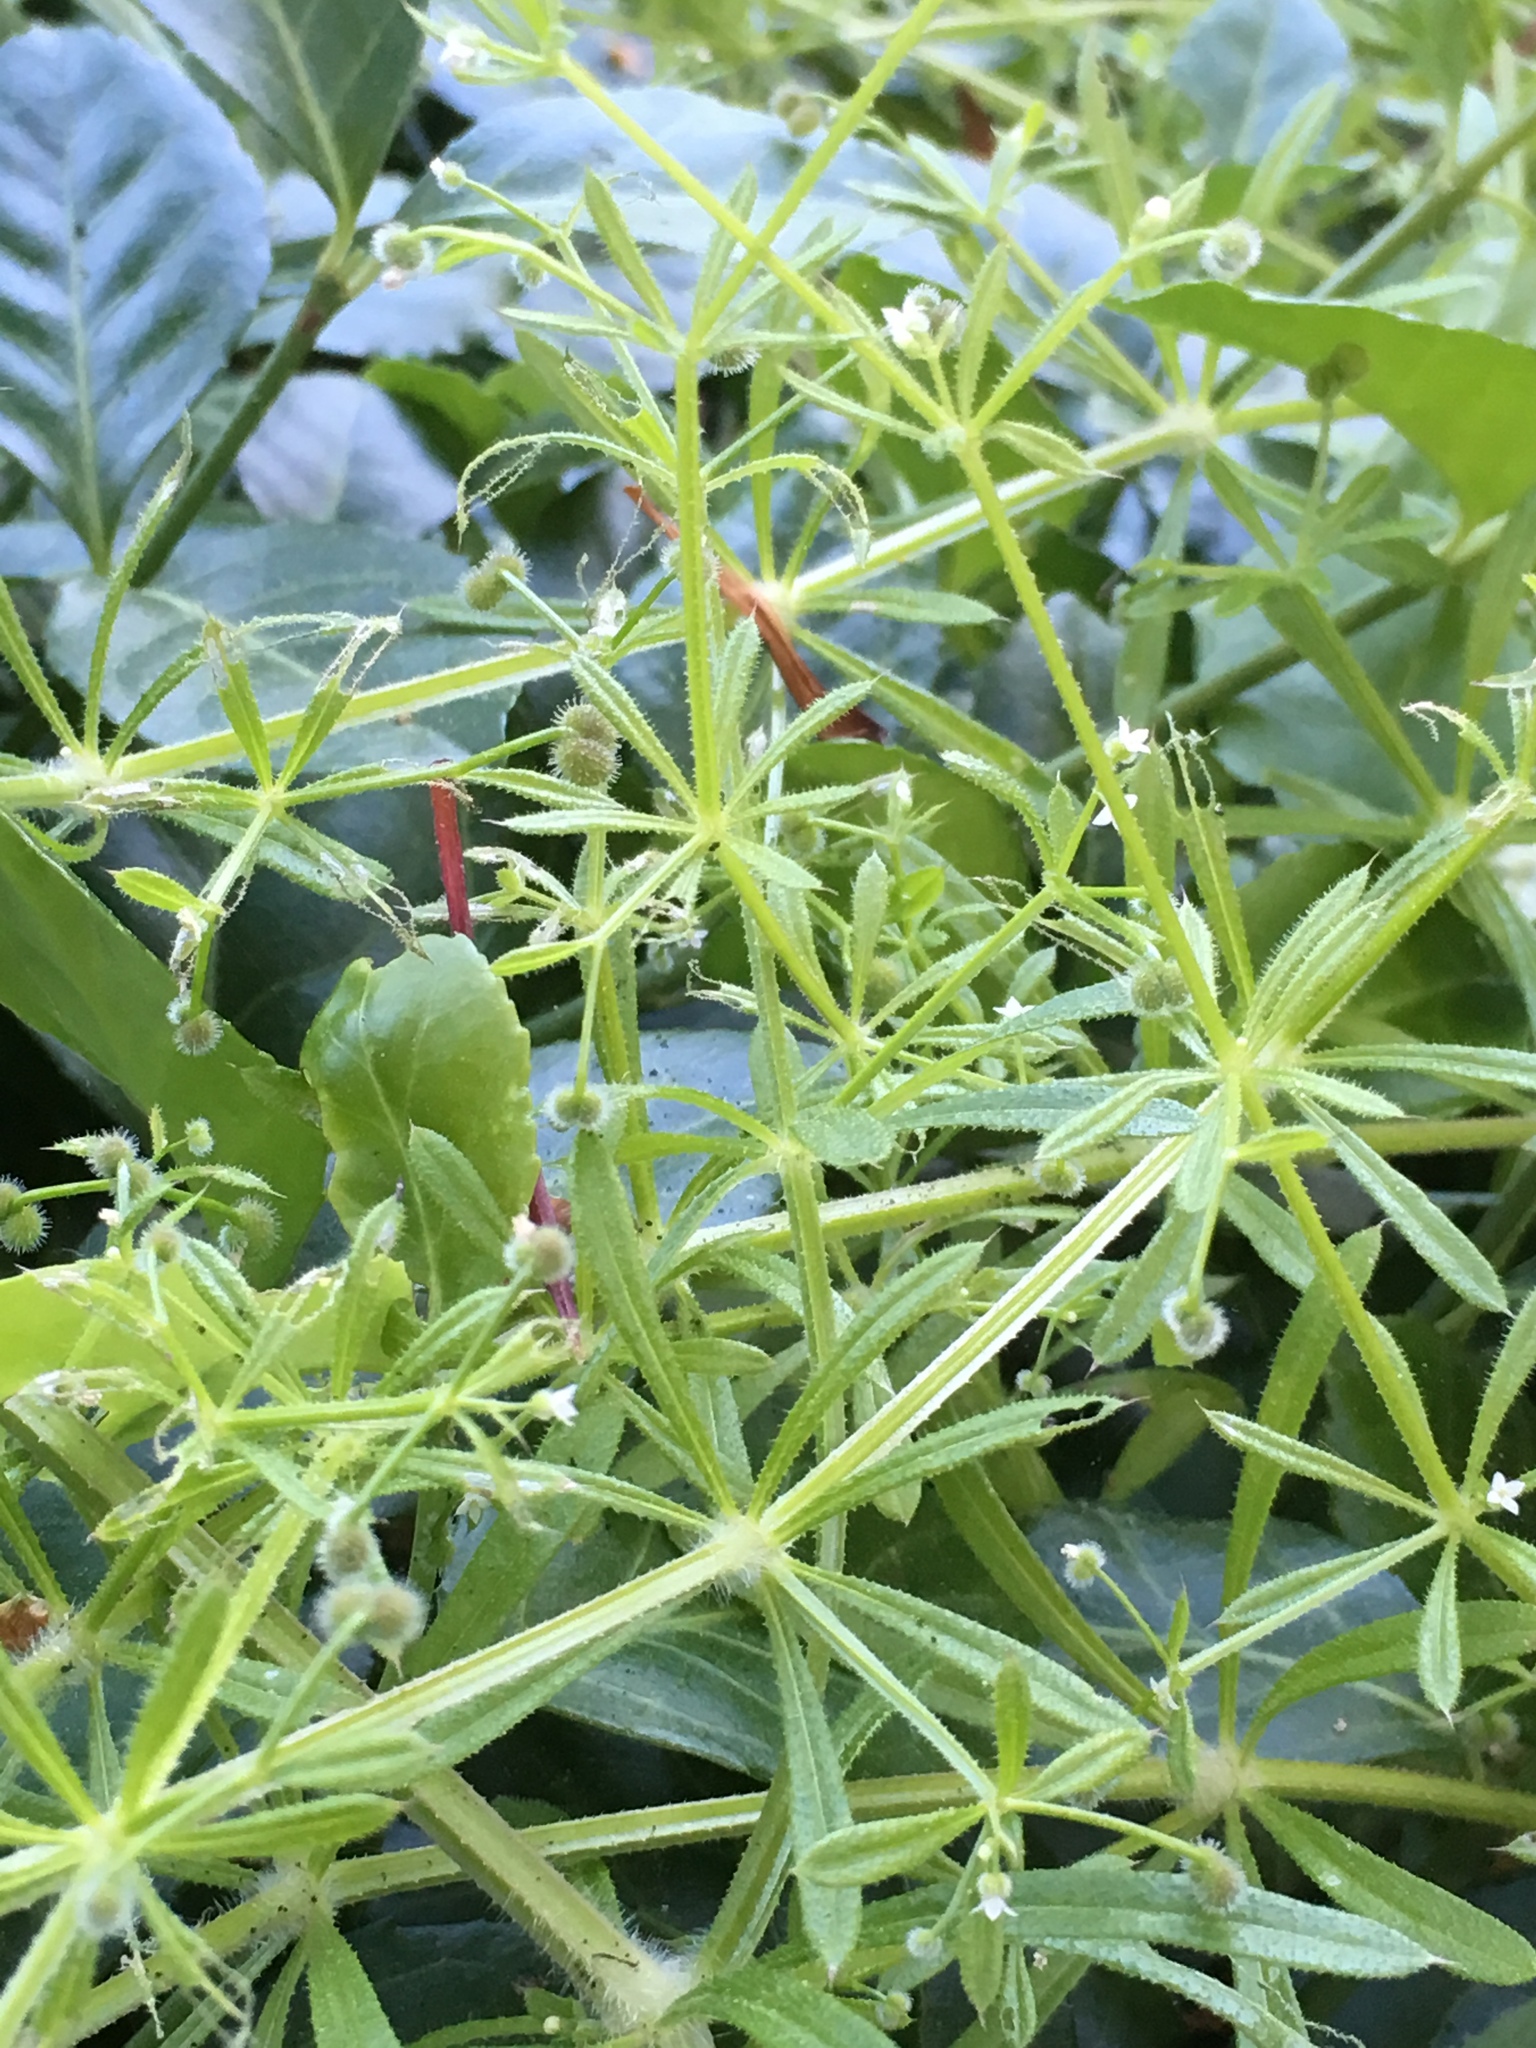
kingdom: Plantae
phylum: Tracheophyta
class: Magnoliopsida
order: Gentianales
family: Rubiaceae
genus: Galium
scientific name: Galium aparine
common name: Cleavers
